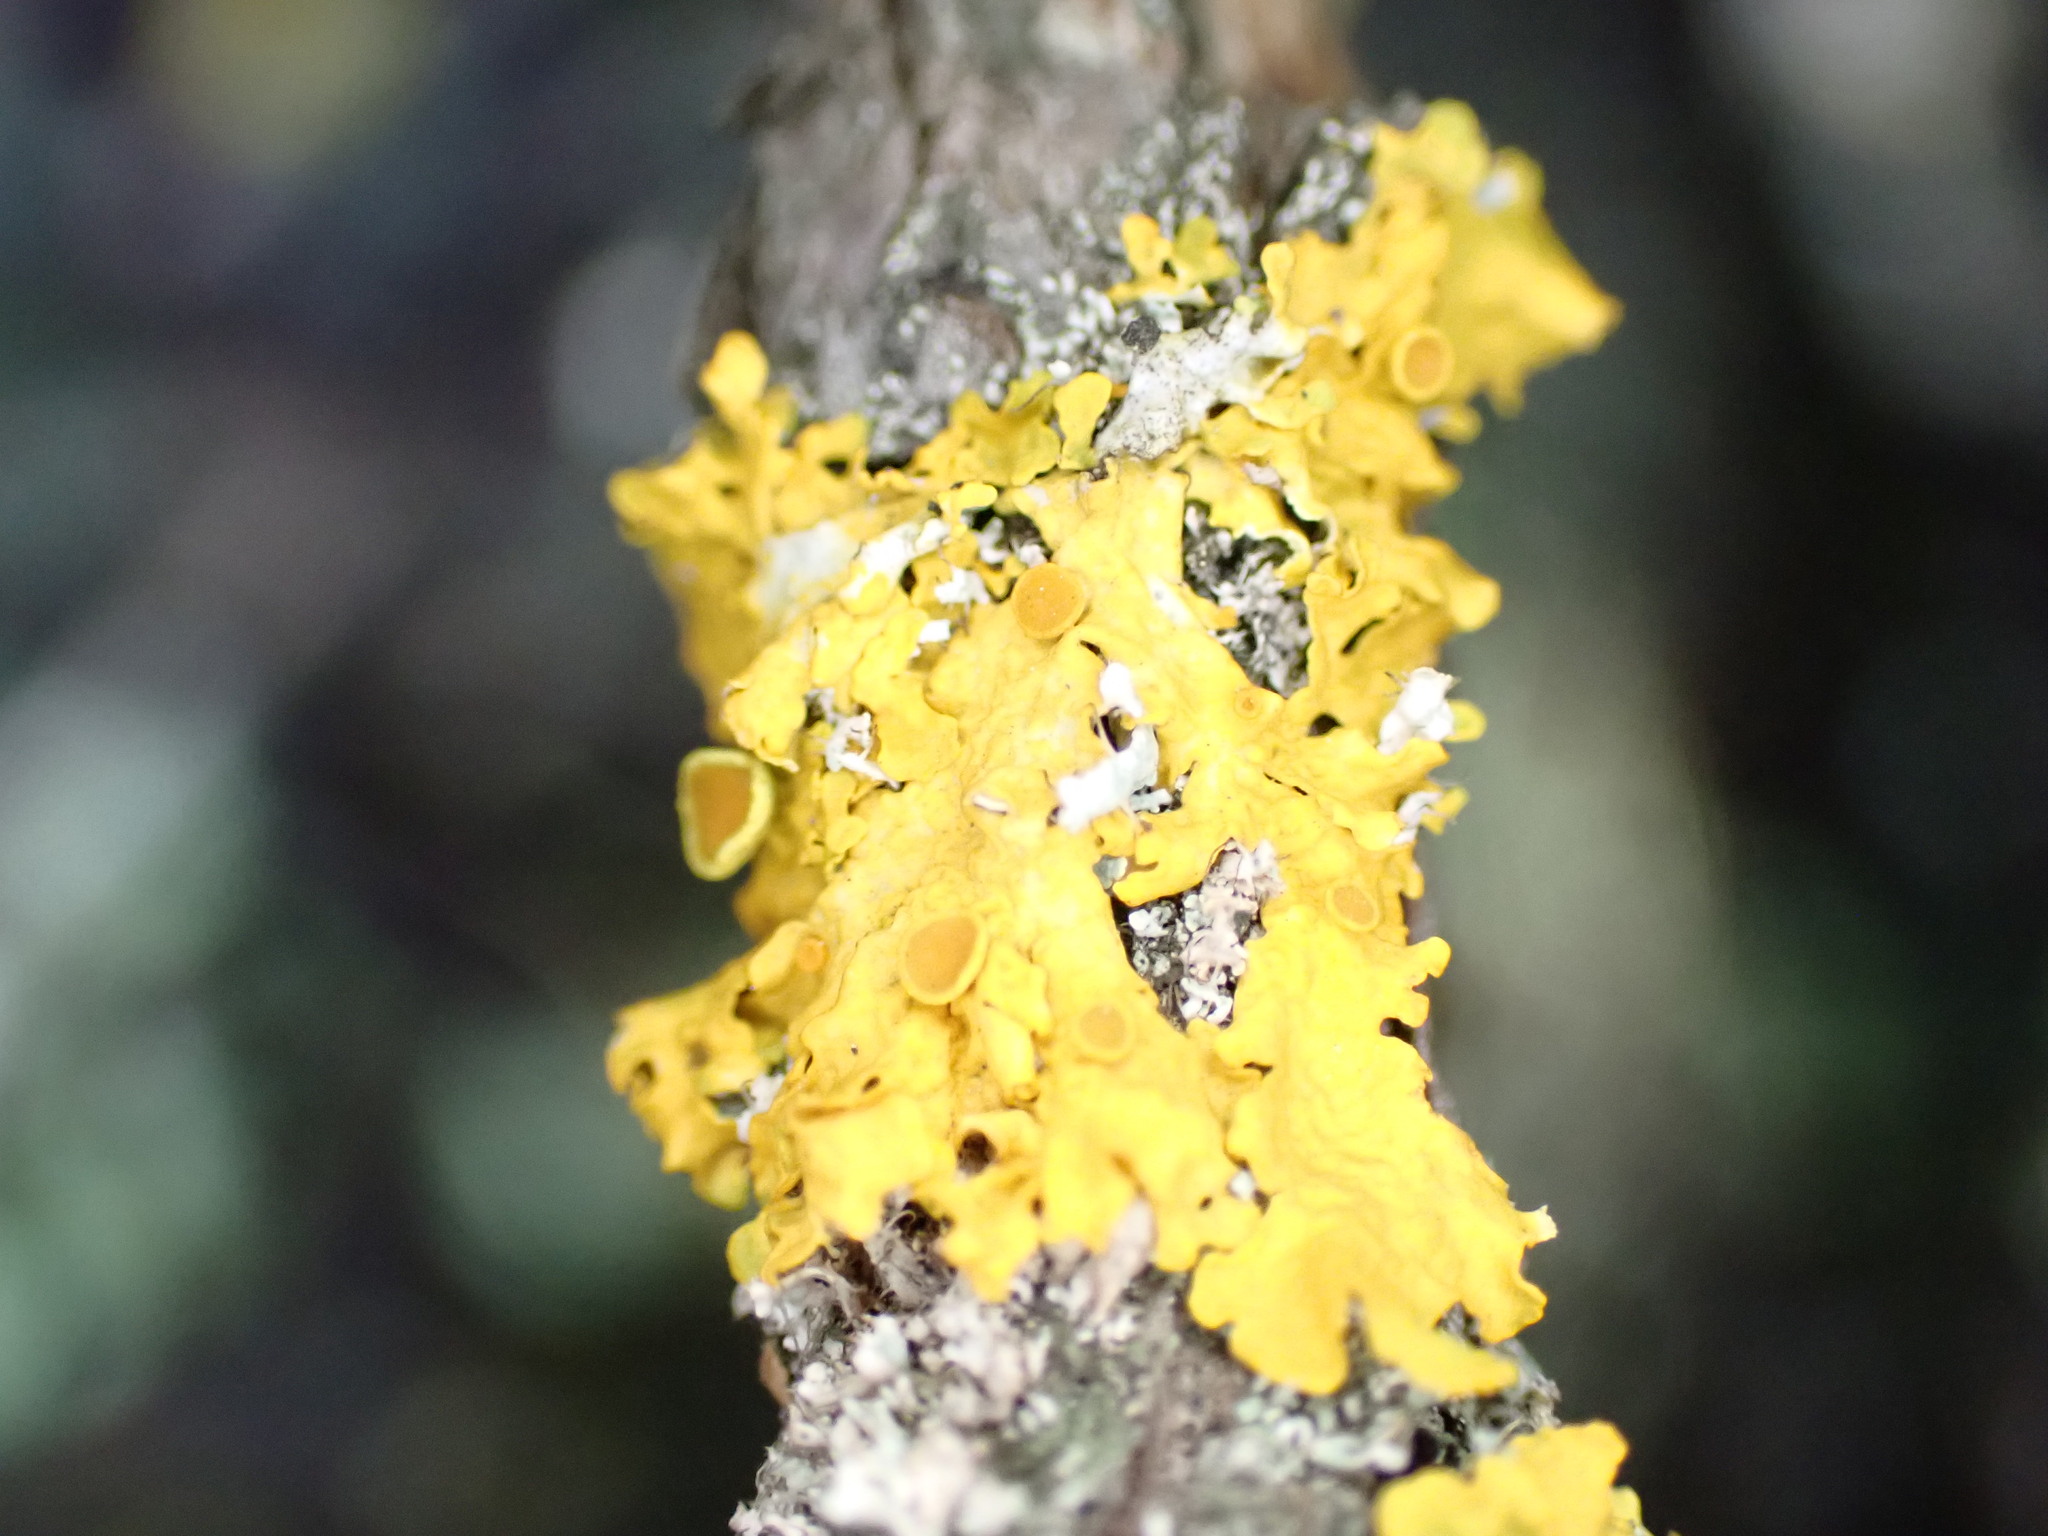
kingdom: Fungi
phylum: Ascomycota
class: Lecanoromycetes
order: Teloschistales
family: Teloschistaceae
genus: Xanthoria
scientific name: Xanthoria parietina
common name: Common orange lichen
